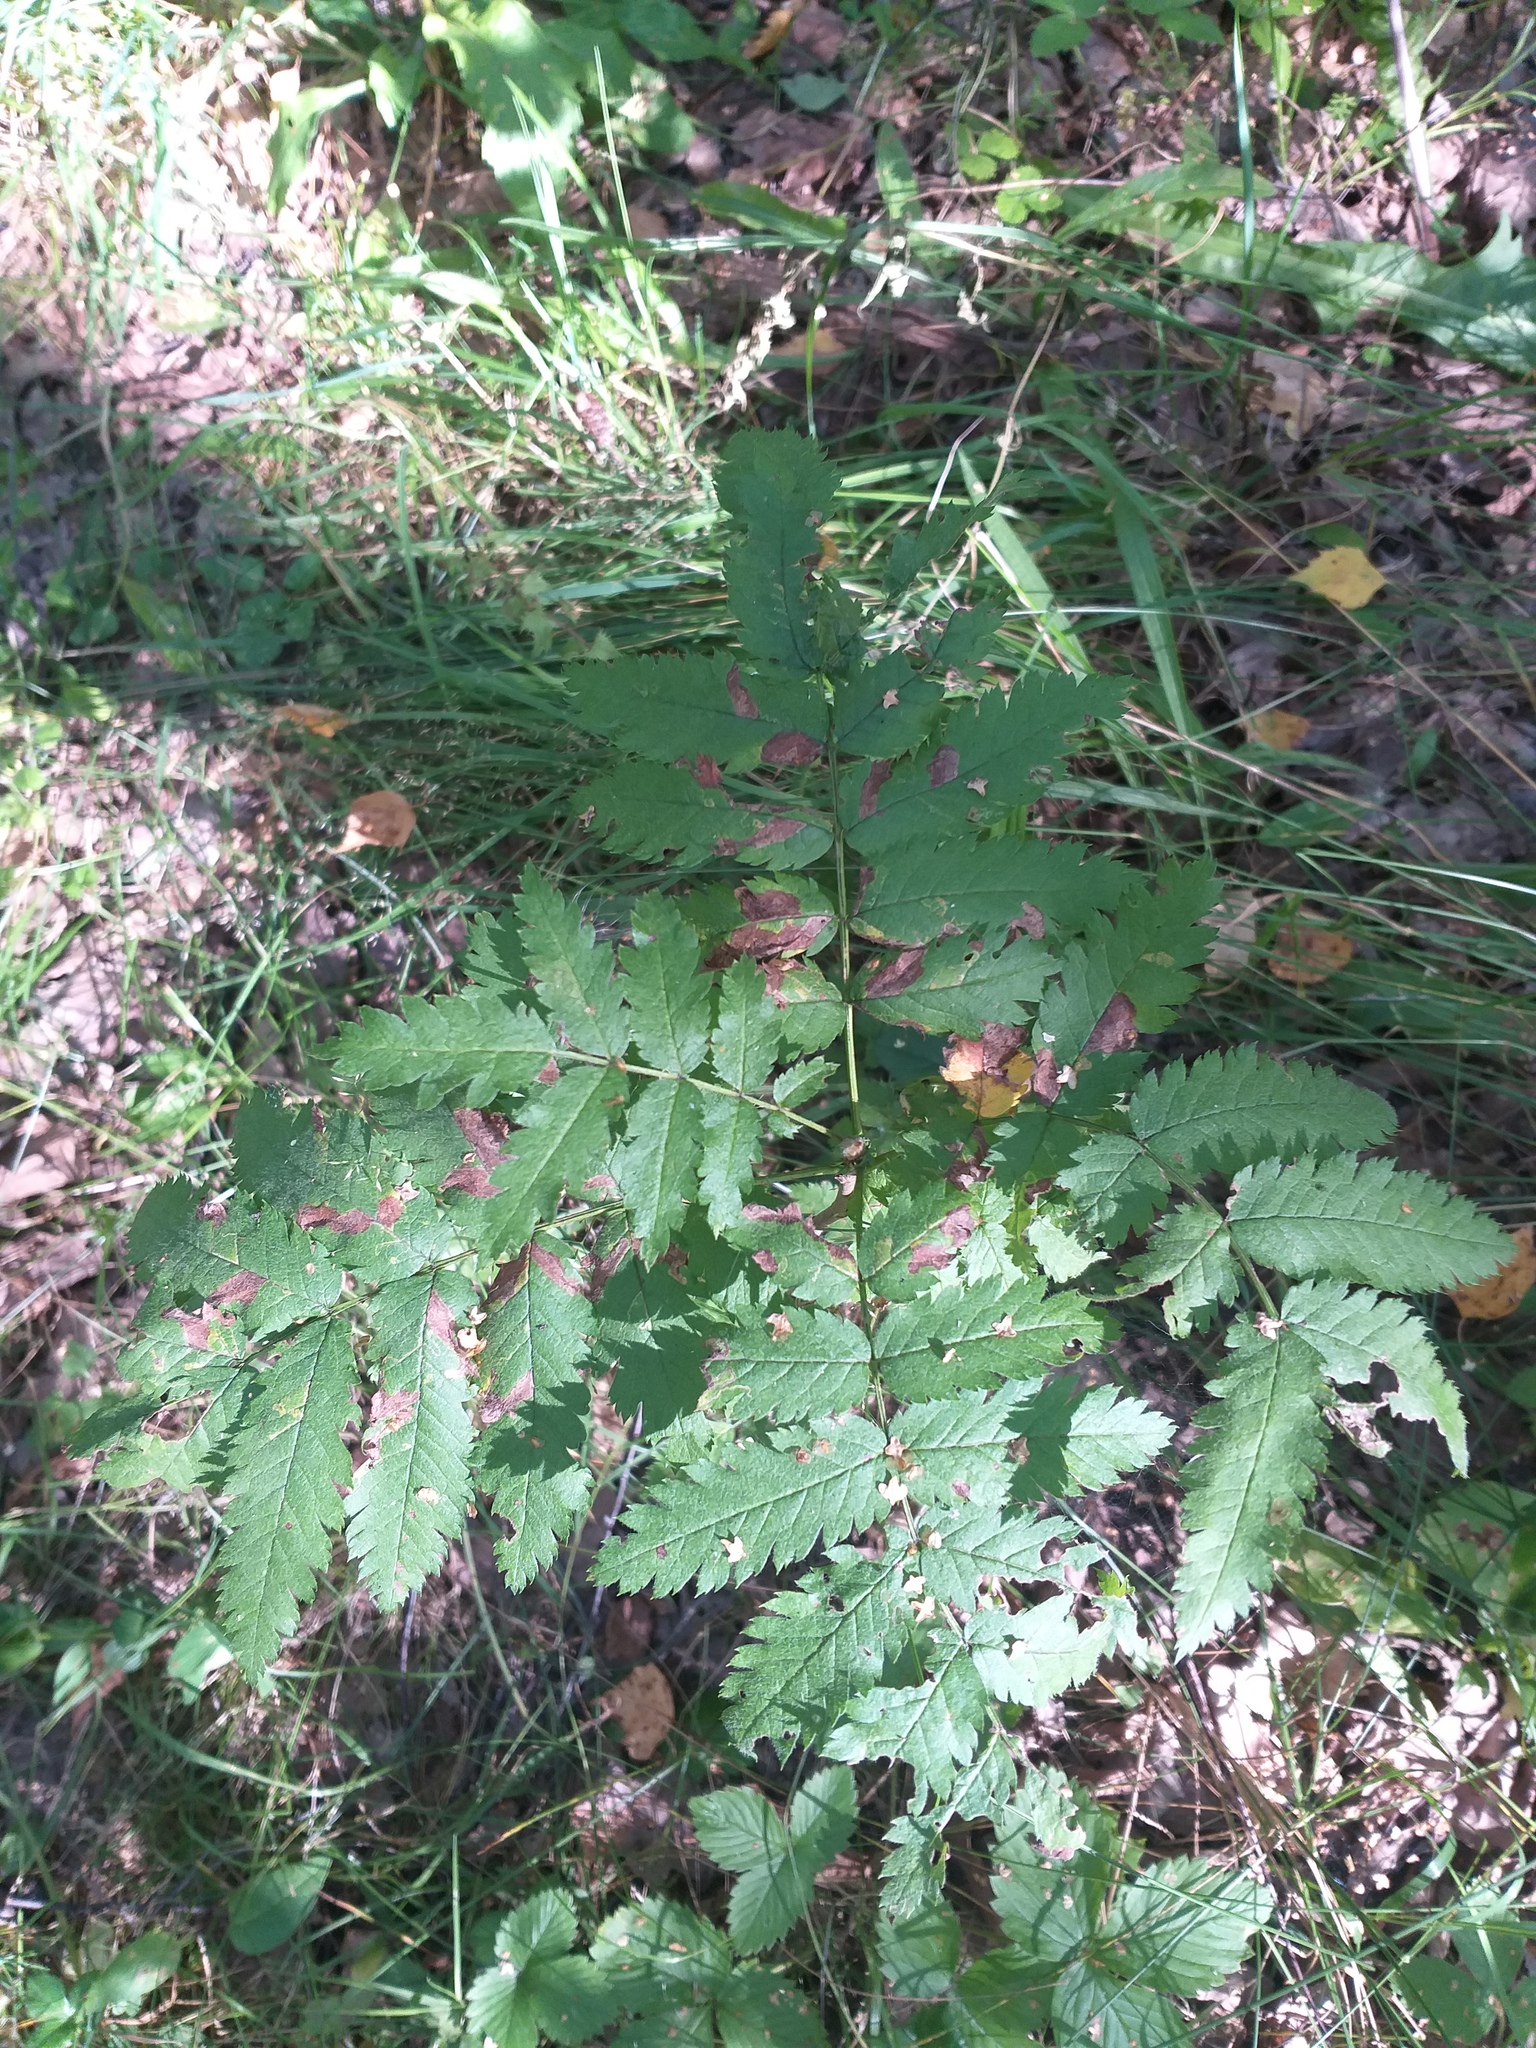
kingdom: Plantae
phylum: Tracheophyta
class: Magnoliopsida
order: Rosales
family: Rosaceae
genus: Sorbus
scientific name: Sorbus aucuparia
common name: Rowan
